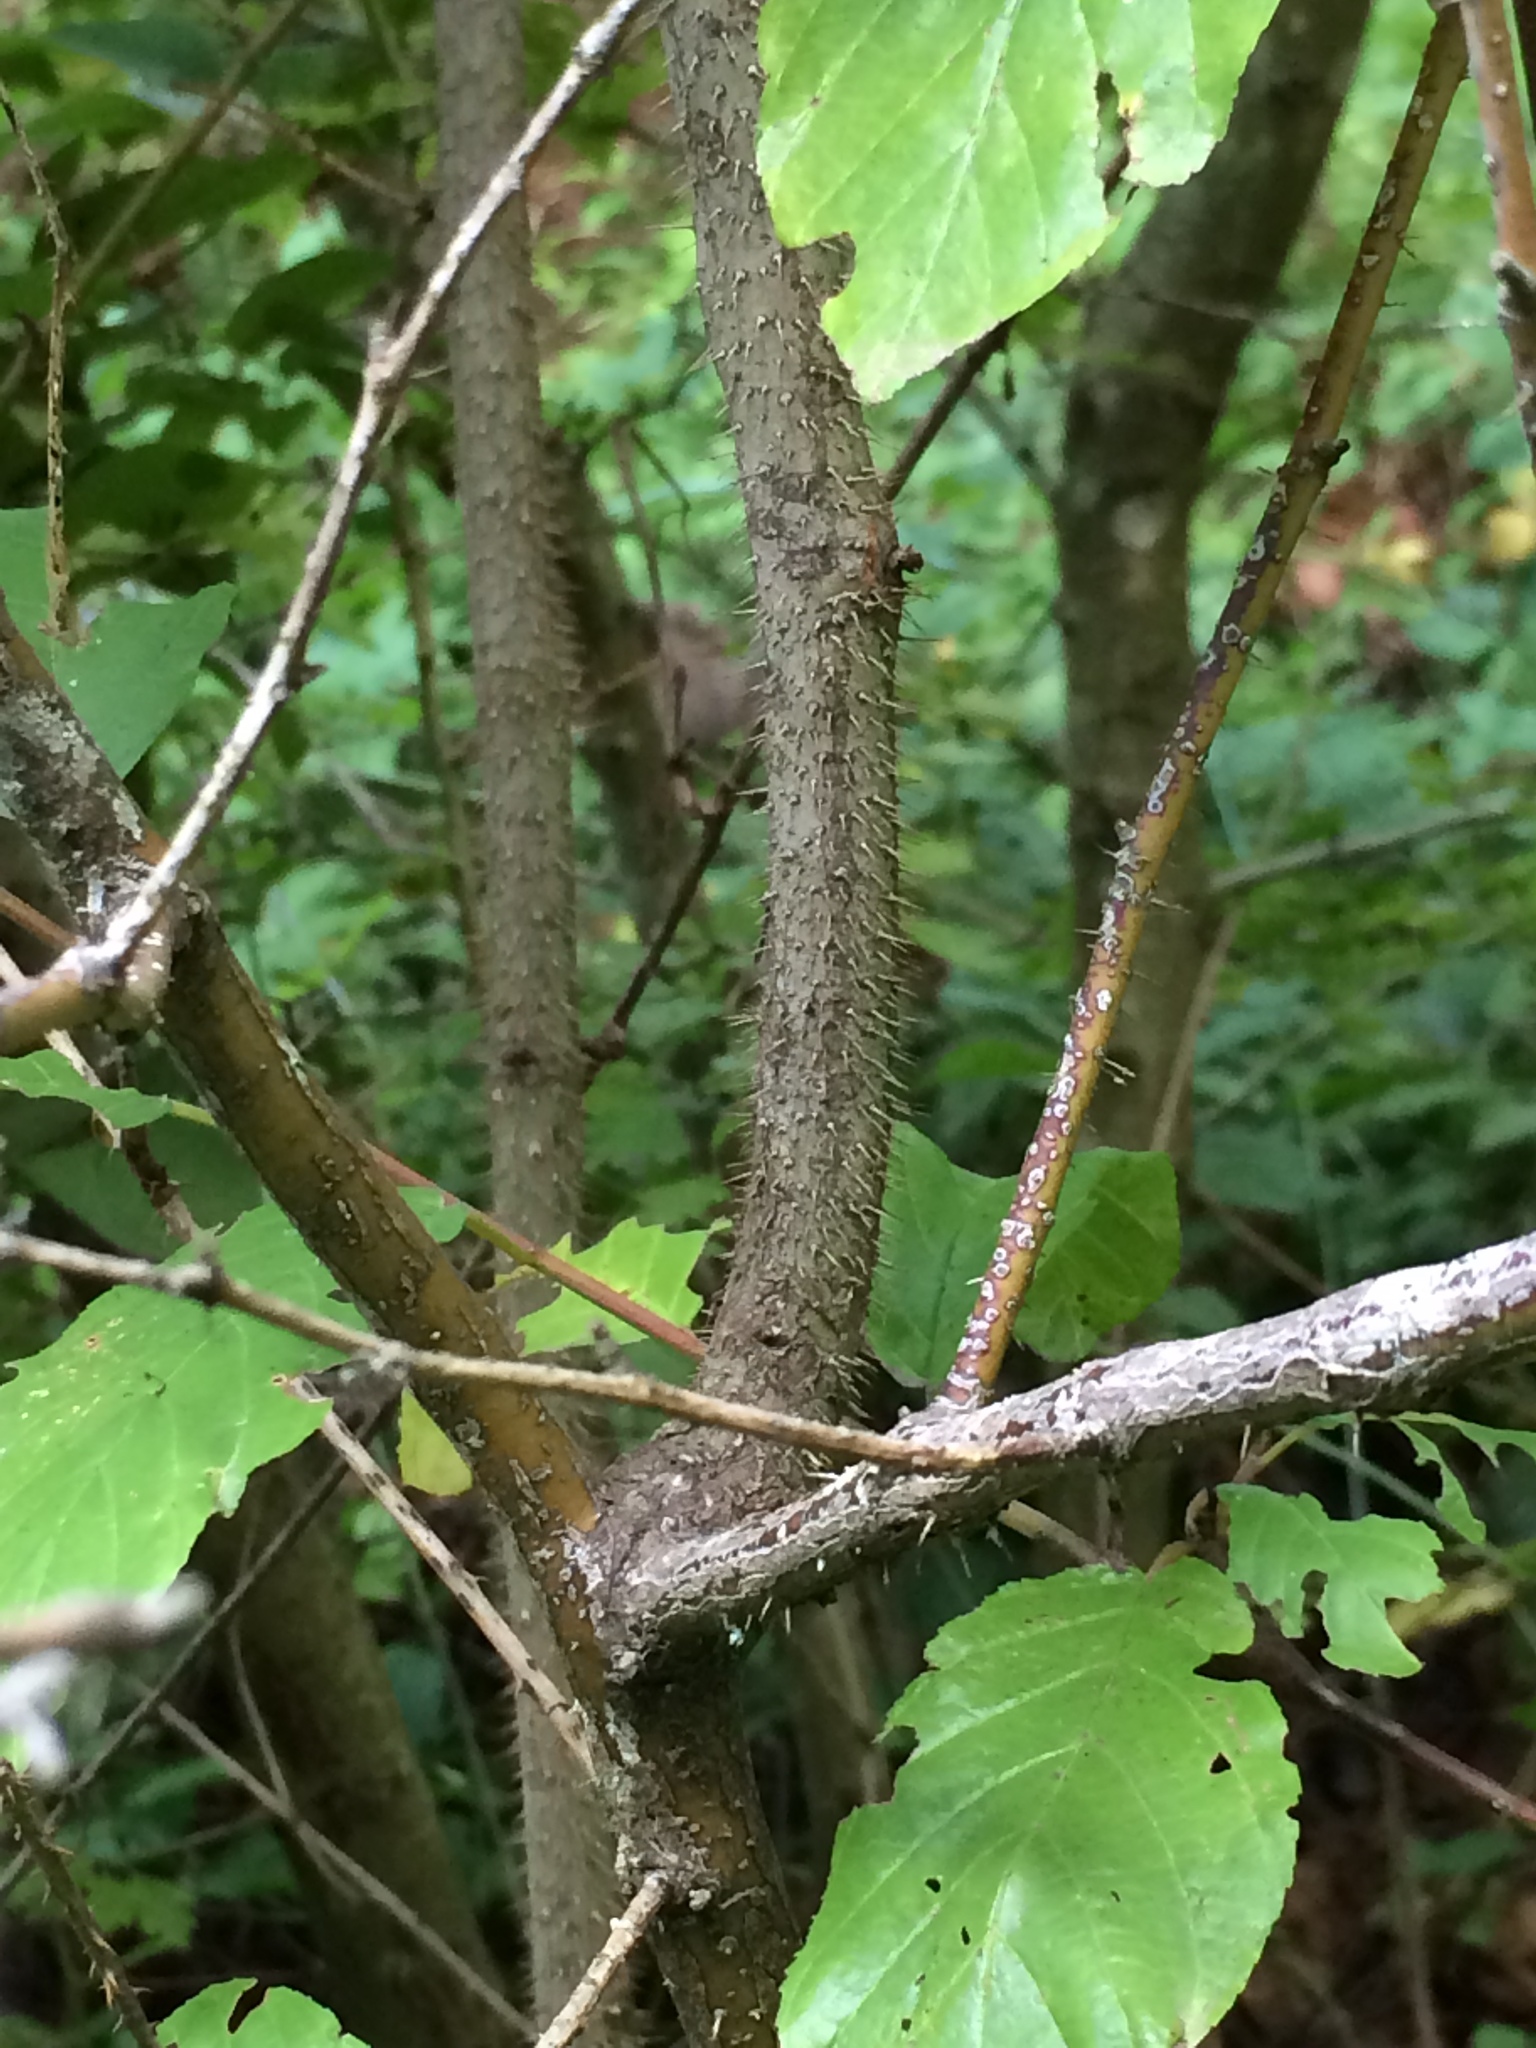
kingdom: Plantae
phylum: Tracheophyta
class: Magnoliopsida
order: Rosales
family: Rosaceae
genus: Rosa
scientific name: Rosa gymnocarpa
